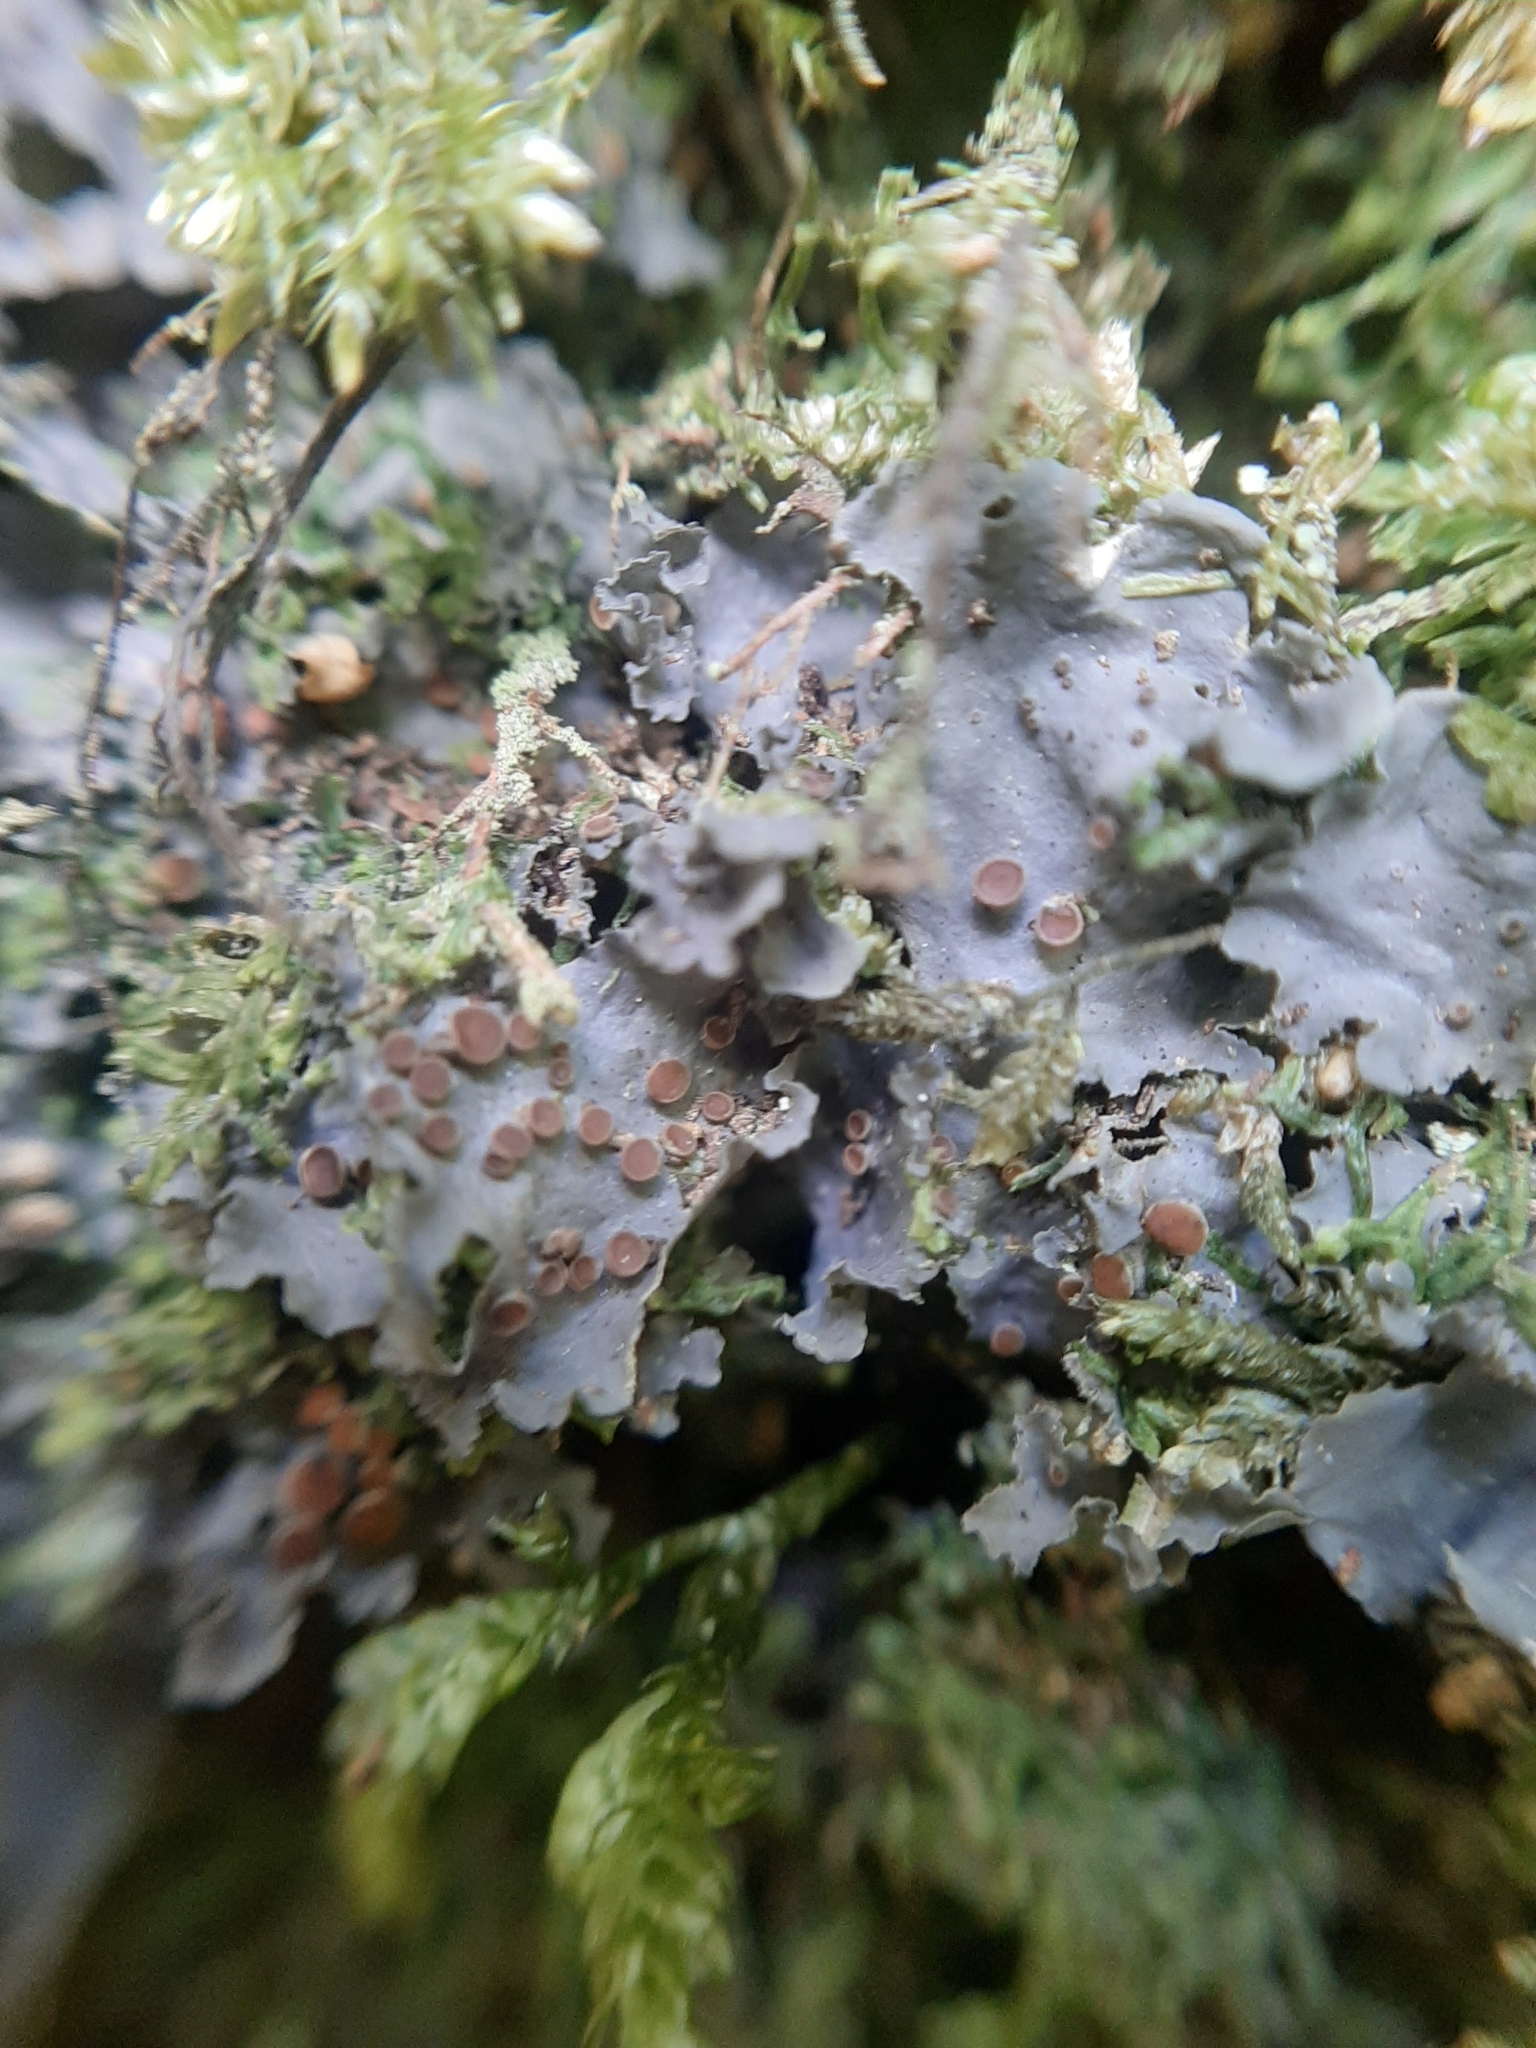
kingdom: Fungi
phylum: Ascomycota
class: Lecanoromycetes
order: Peltigerales
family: Collemataceae
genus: Collema
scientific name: Collema subconveniens
